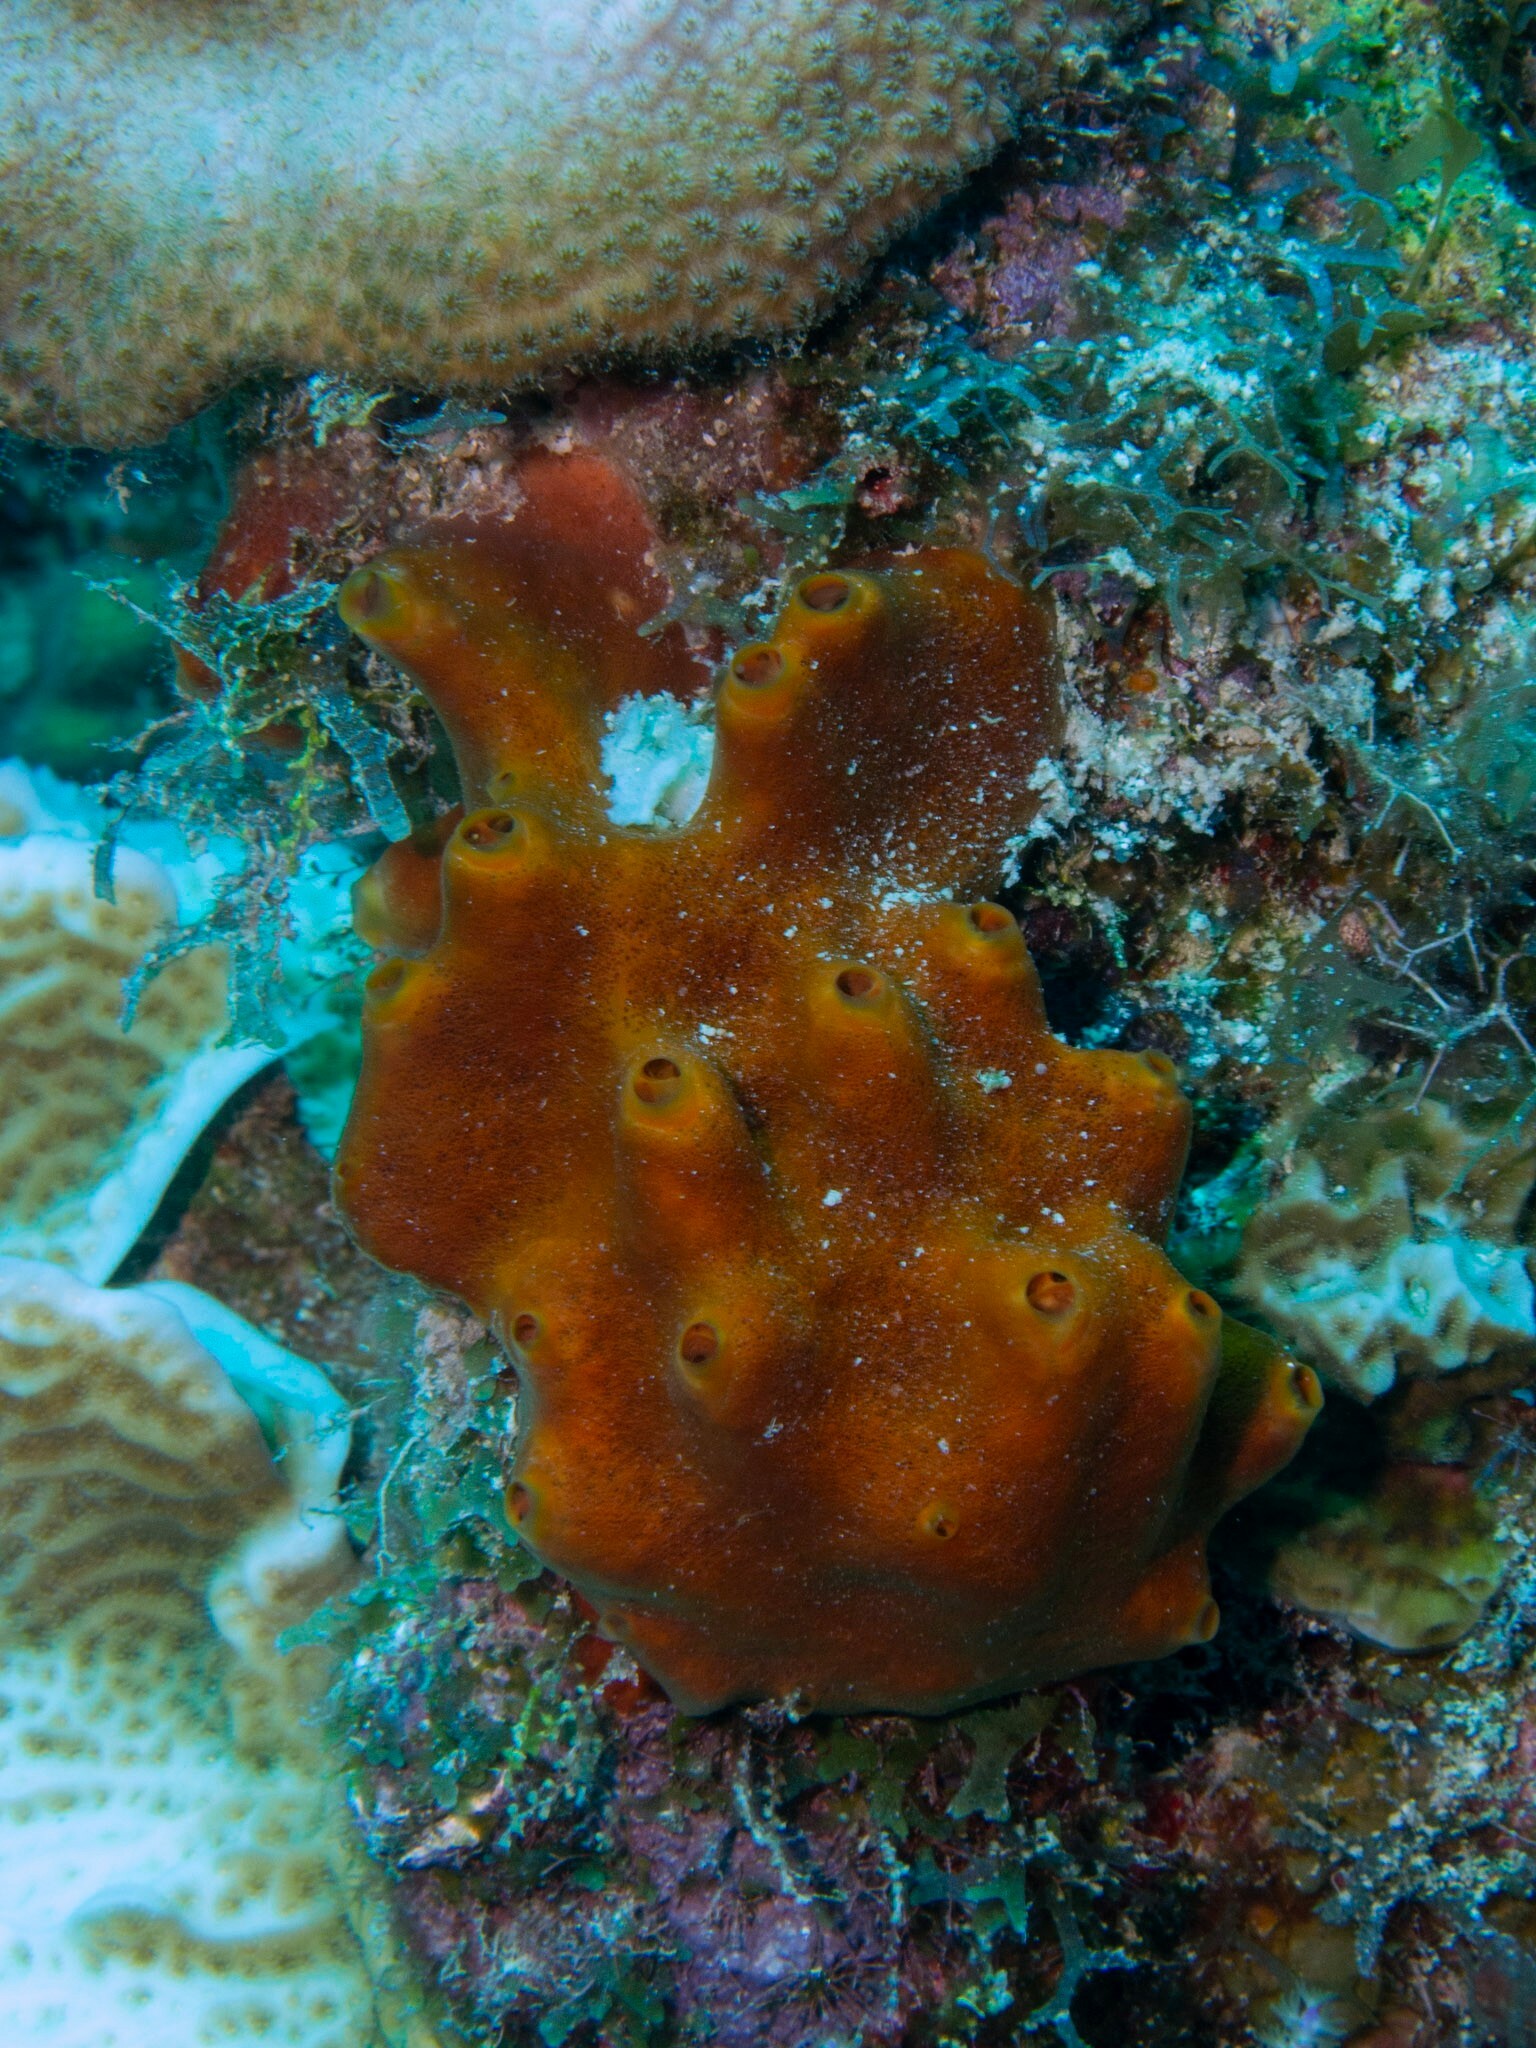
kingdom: Animalia
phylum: Porifera
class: Demospongiae
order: Axinellida
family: Raspailiidae
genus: Ectyoplasia
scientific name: Ectyoplasia ferox
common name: Brown encrusting octopus sponge
